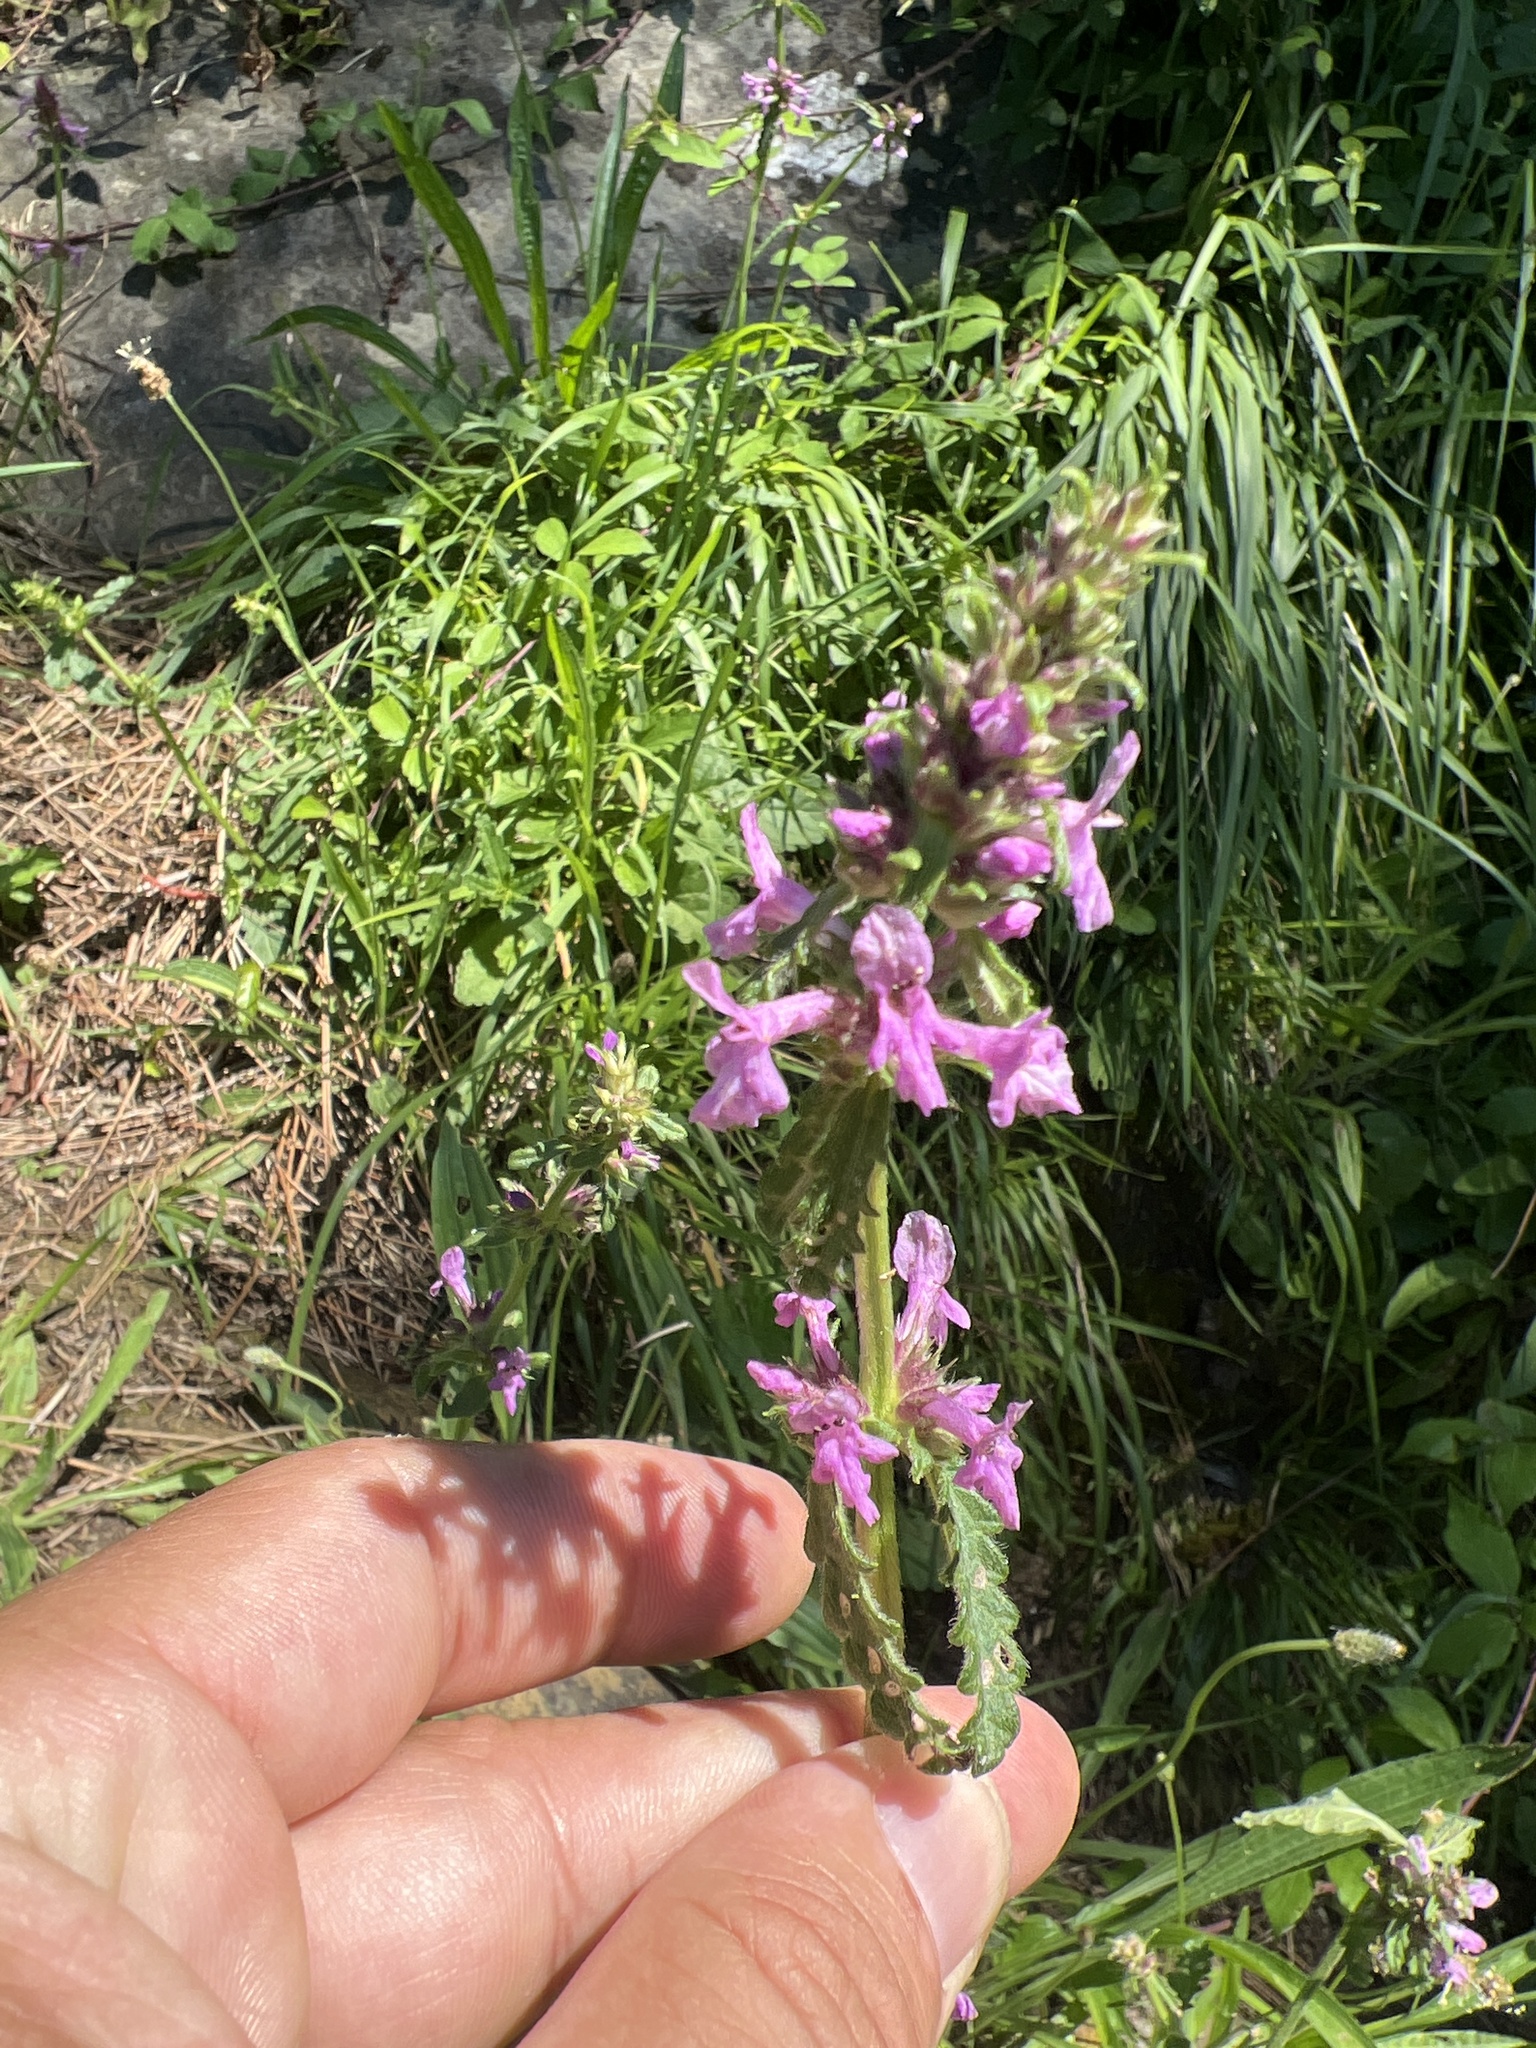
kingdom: Plantae
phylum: Tracheophyta
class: Magnoliopsida
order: Lamiales
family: Lamiaceae
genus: Betonica
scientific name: Betonica officinalis
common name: Bishop's-wort
